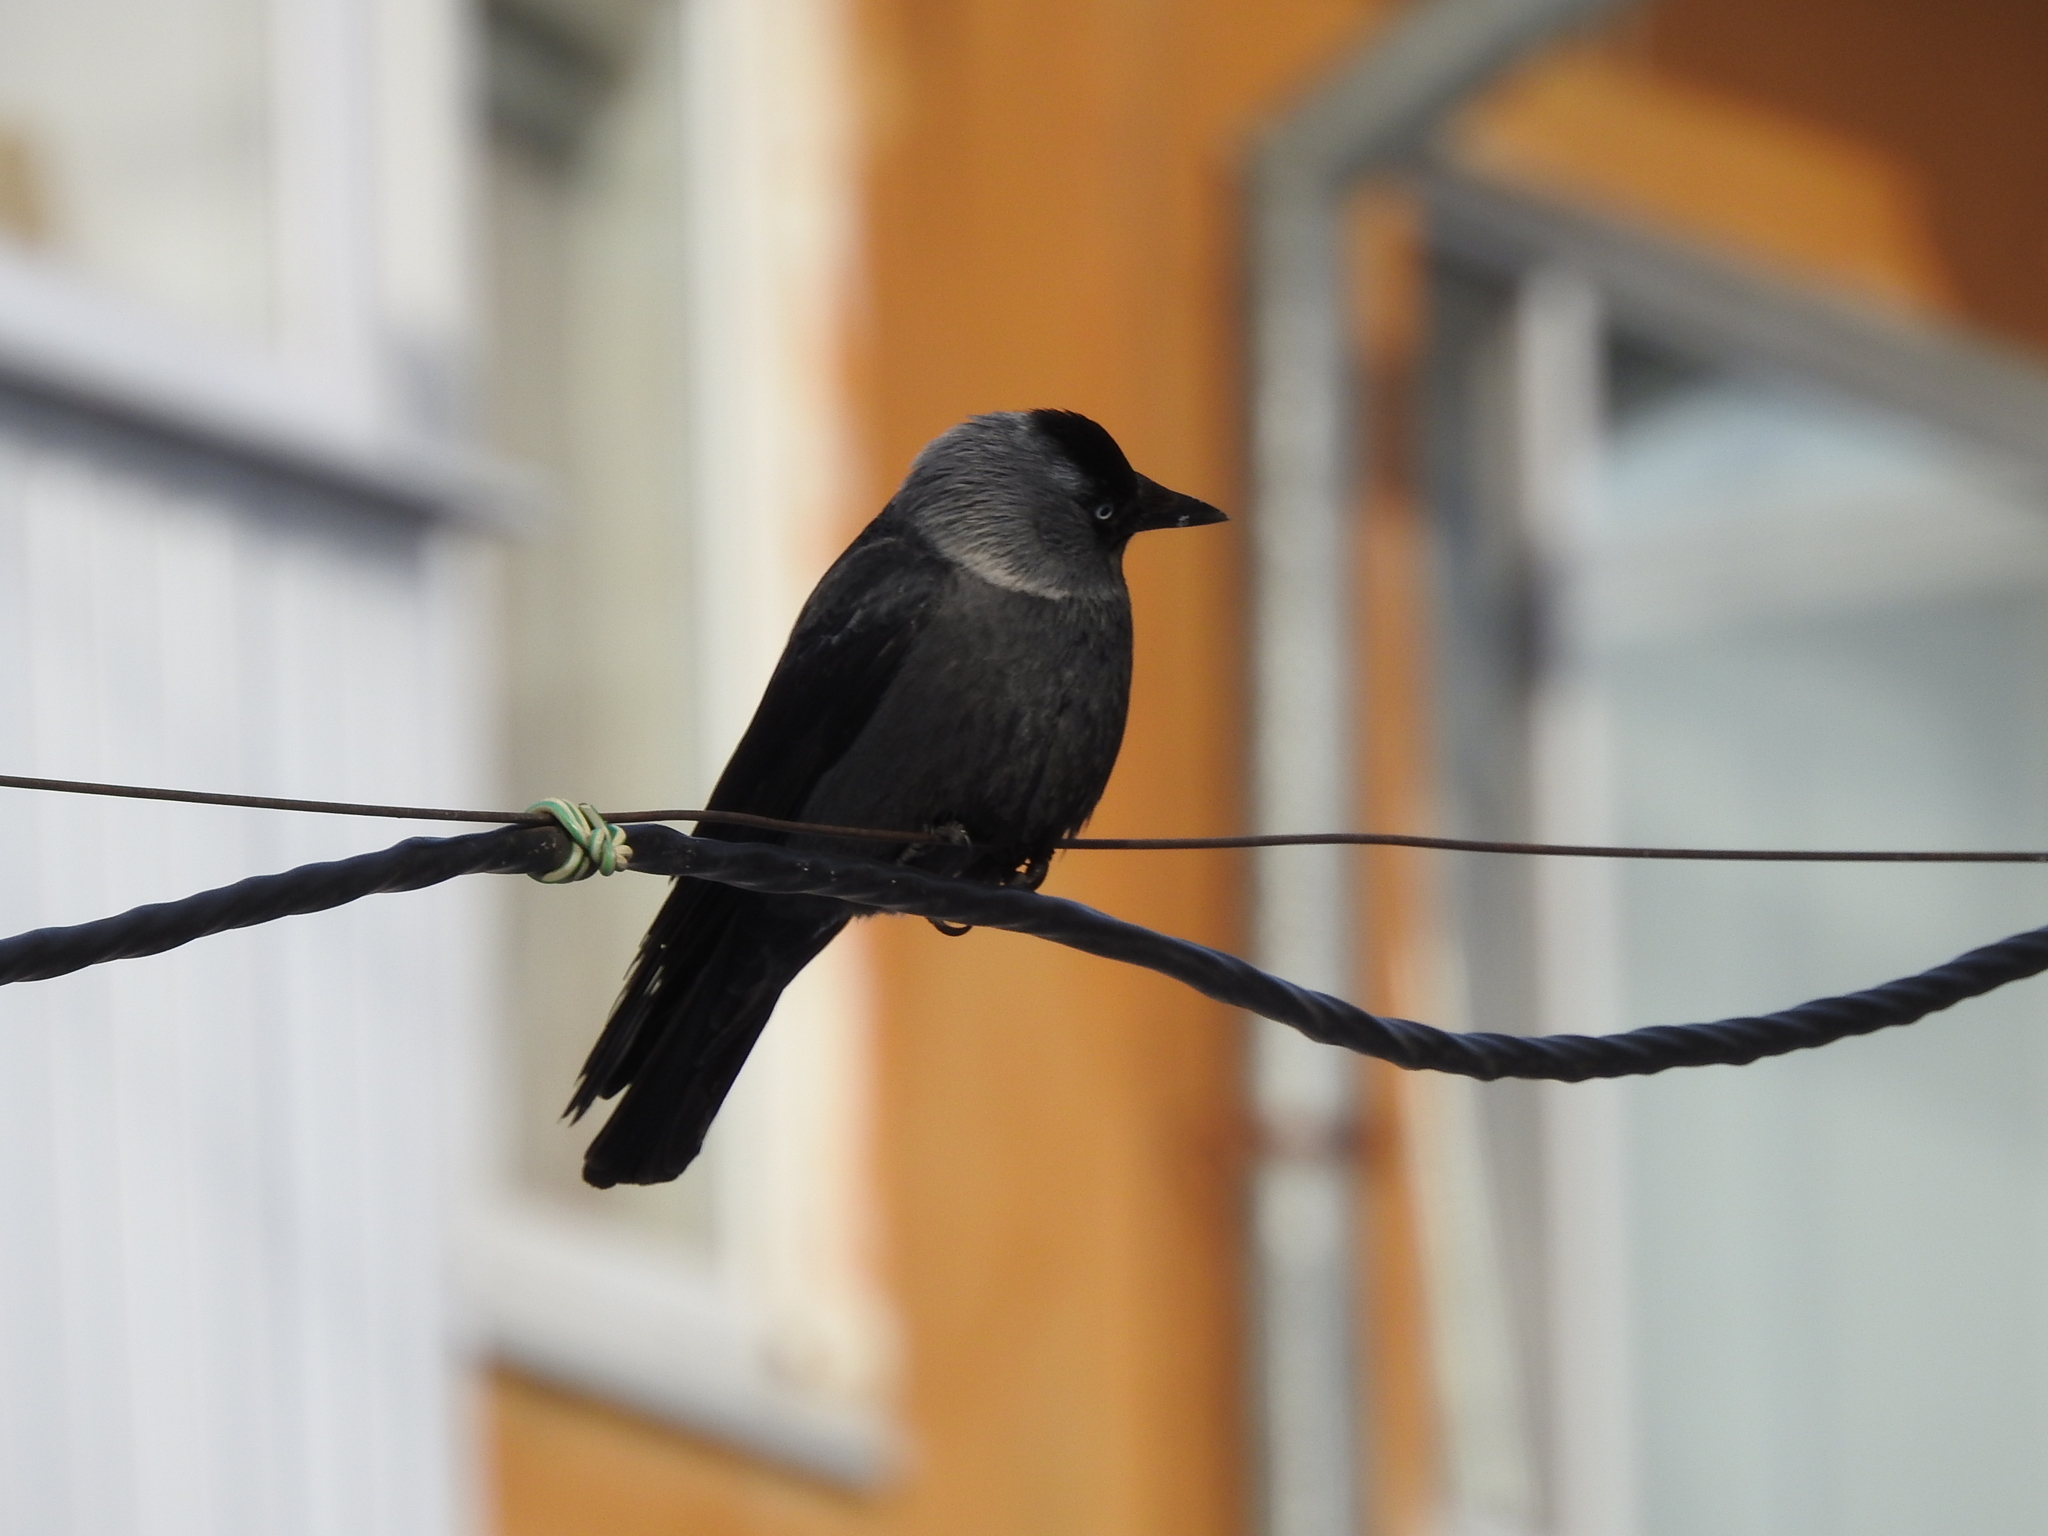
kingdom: Animalia
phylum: Chordata
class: Aves
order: Passeriformes
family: Corvidae
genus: Coloeus
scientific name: Coloeus monedula
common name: Western jackdaw
